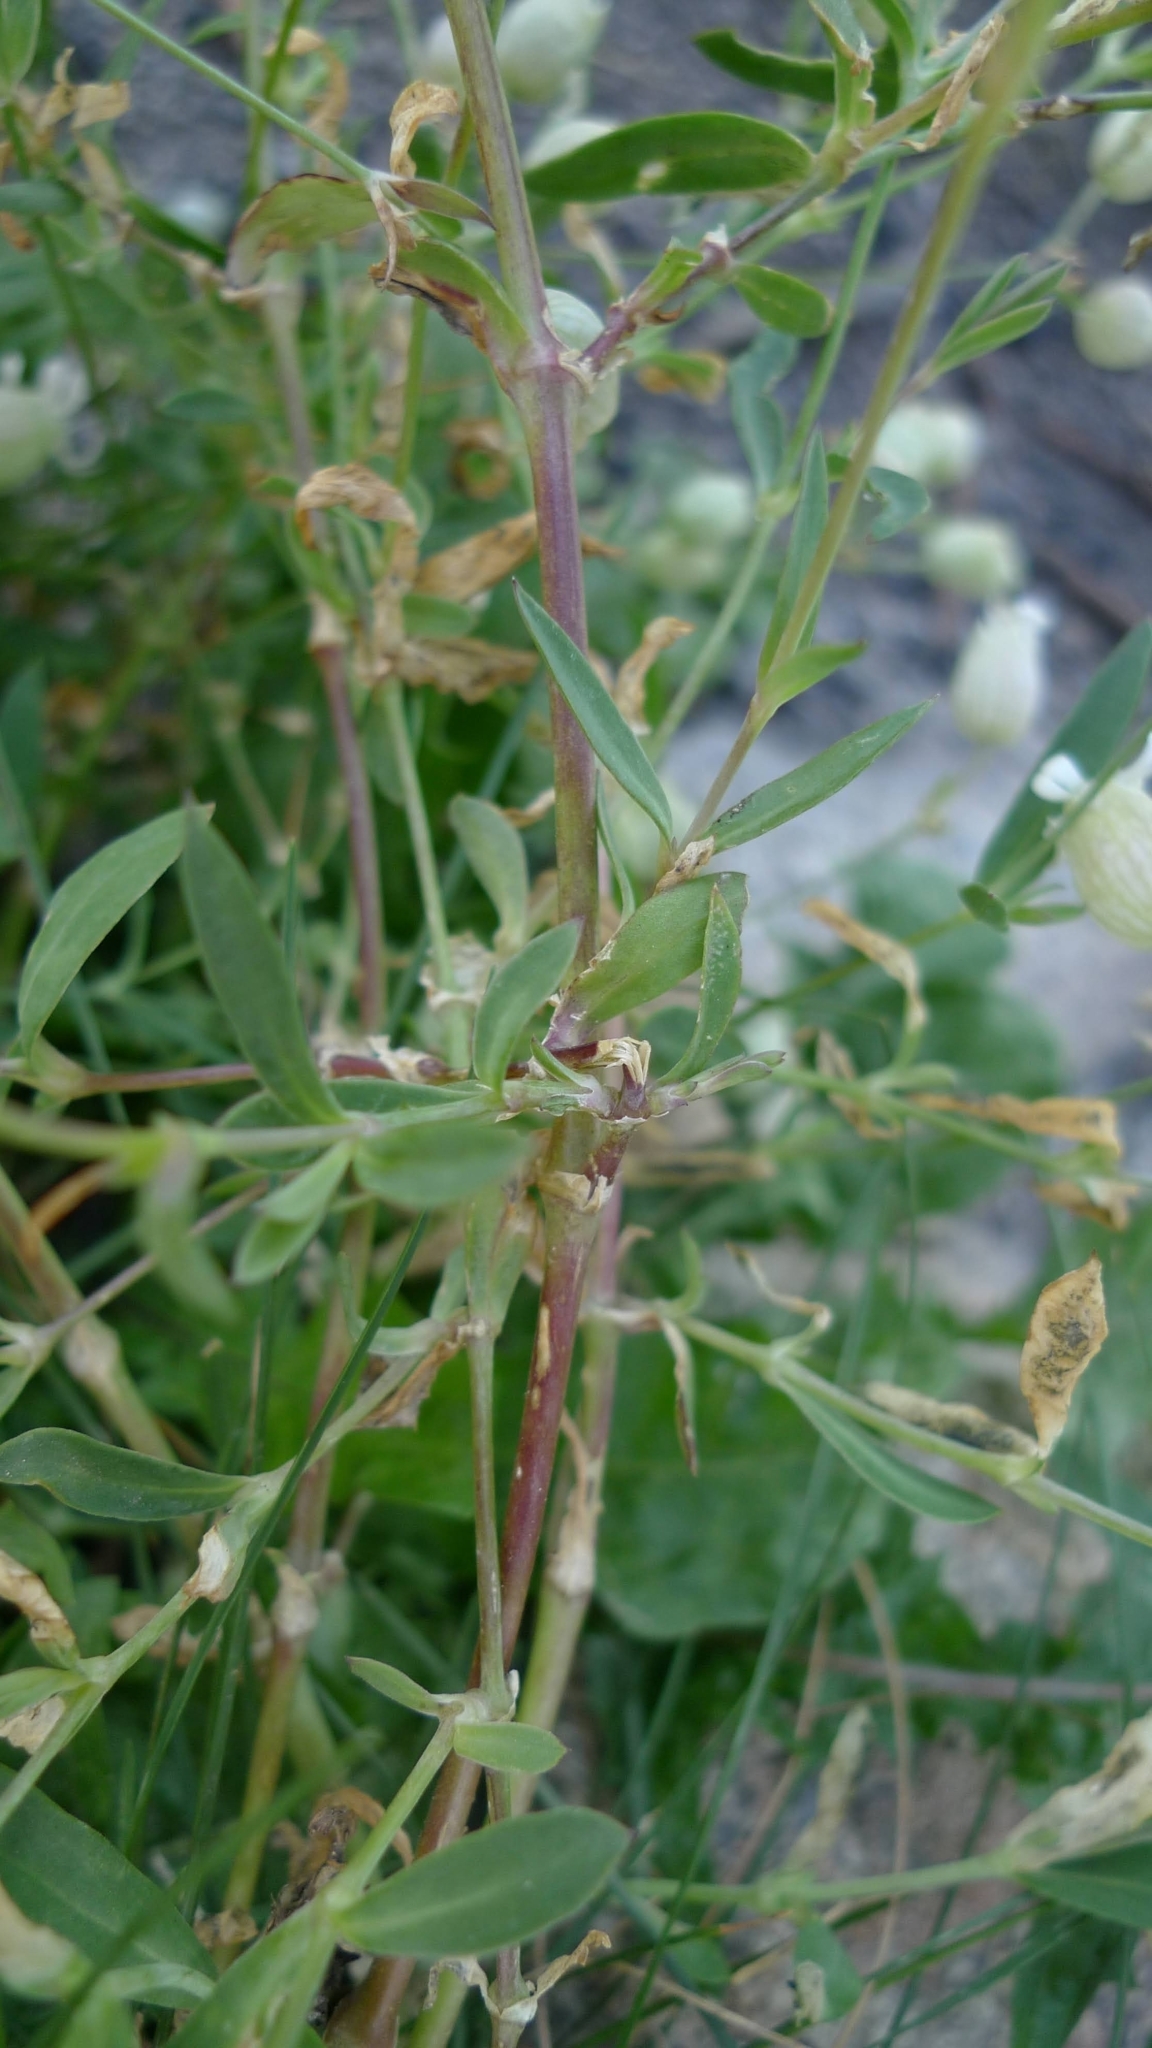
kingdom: Plantae
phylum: Tracheophyta
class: Magnoliopsida
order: Caryophyllales
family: Caryophyllaceae
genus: Silene
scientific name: Silene vulgaris
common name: Bladder campion
